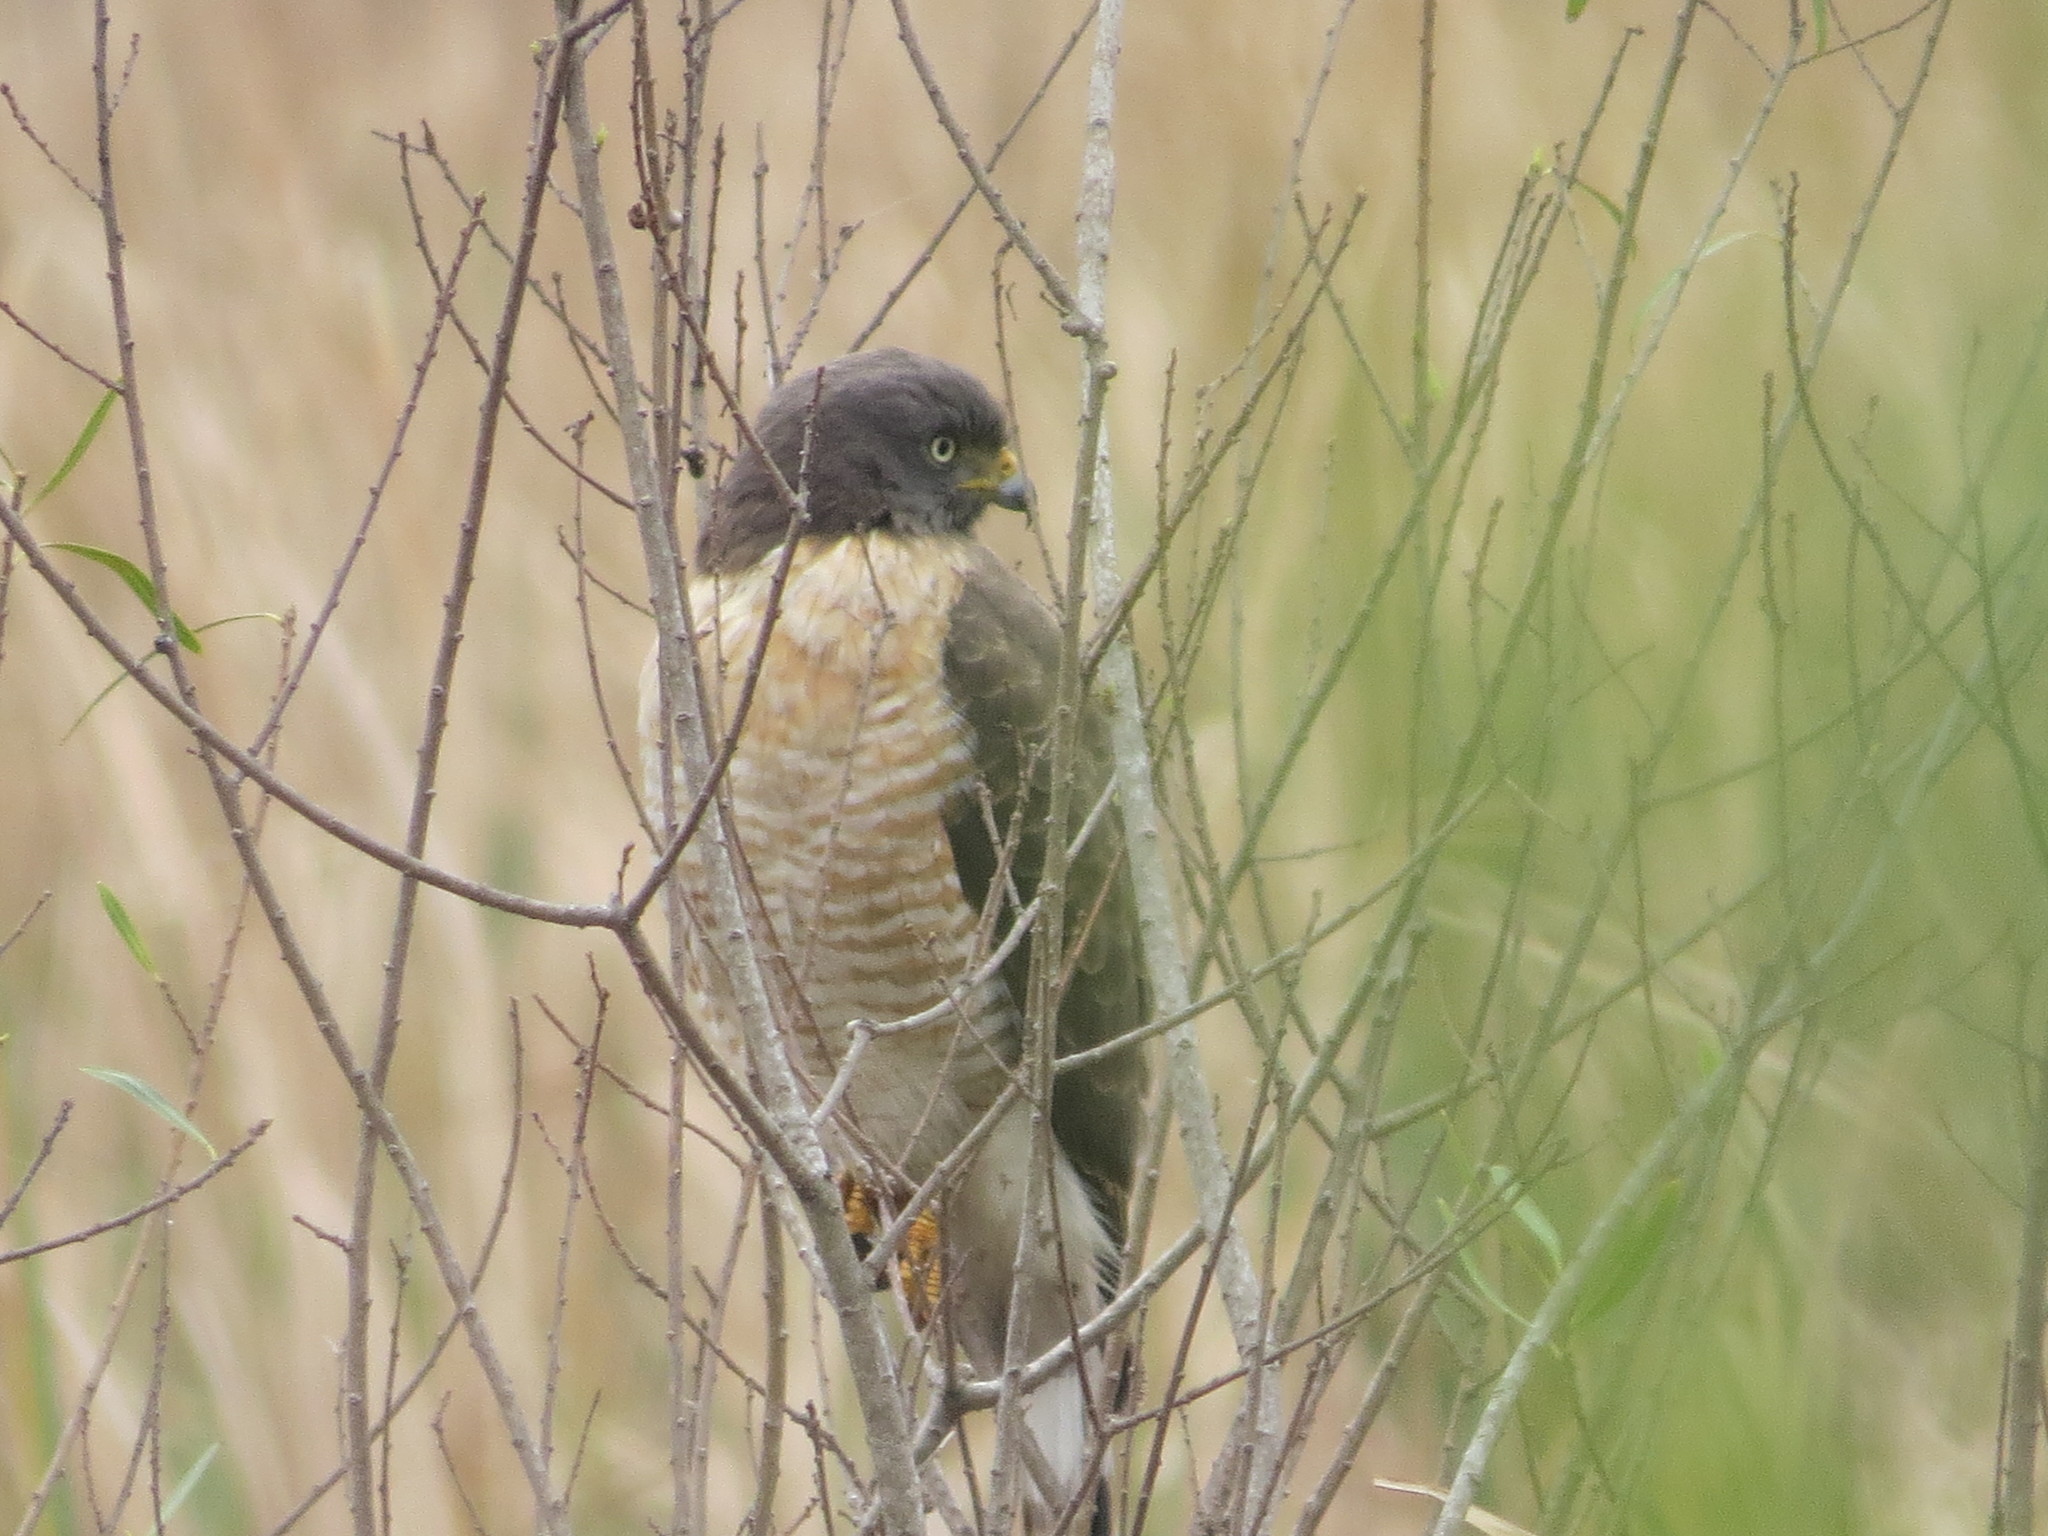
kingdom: Animalia
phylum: Chordata
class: Aves
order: Accipitriformes
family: Accipitridae
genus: Rupornis
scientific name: Rupornis magnirostris
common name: Roadside hawk
